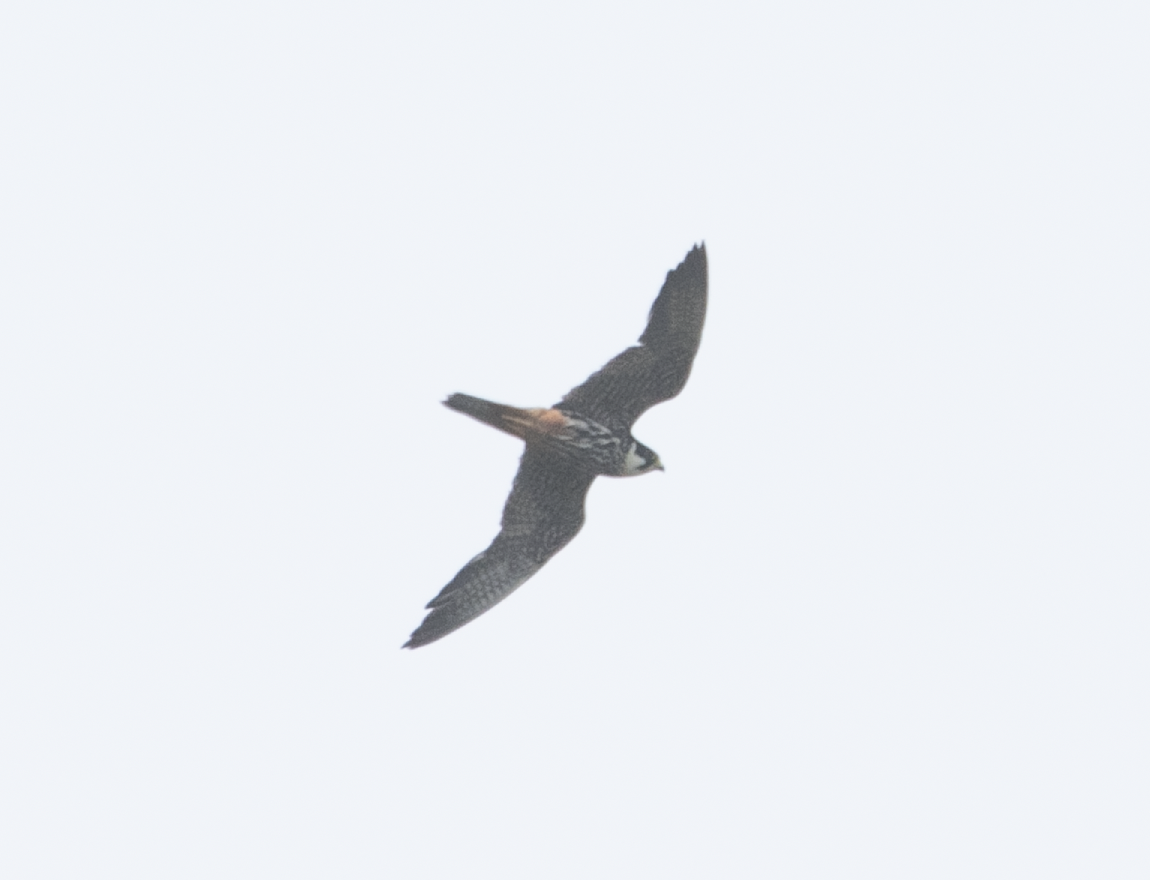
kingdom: Animalia
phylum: Chordata
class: Aves
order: Falconiformes
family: Falconidae
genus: Falco
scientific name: Falco subbuteo
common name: Eurasian hobby
